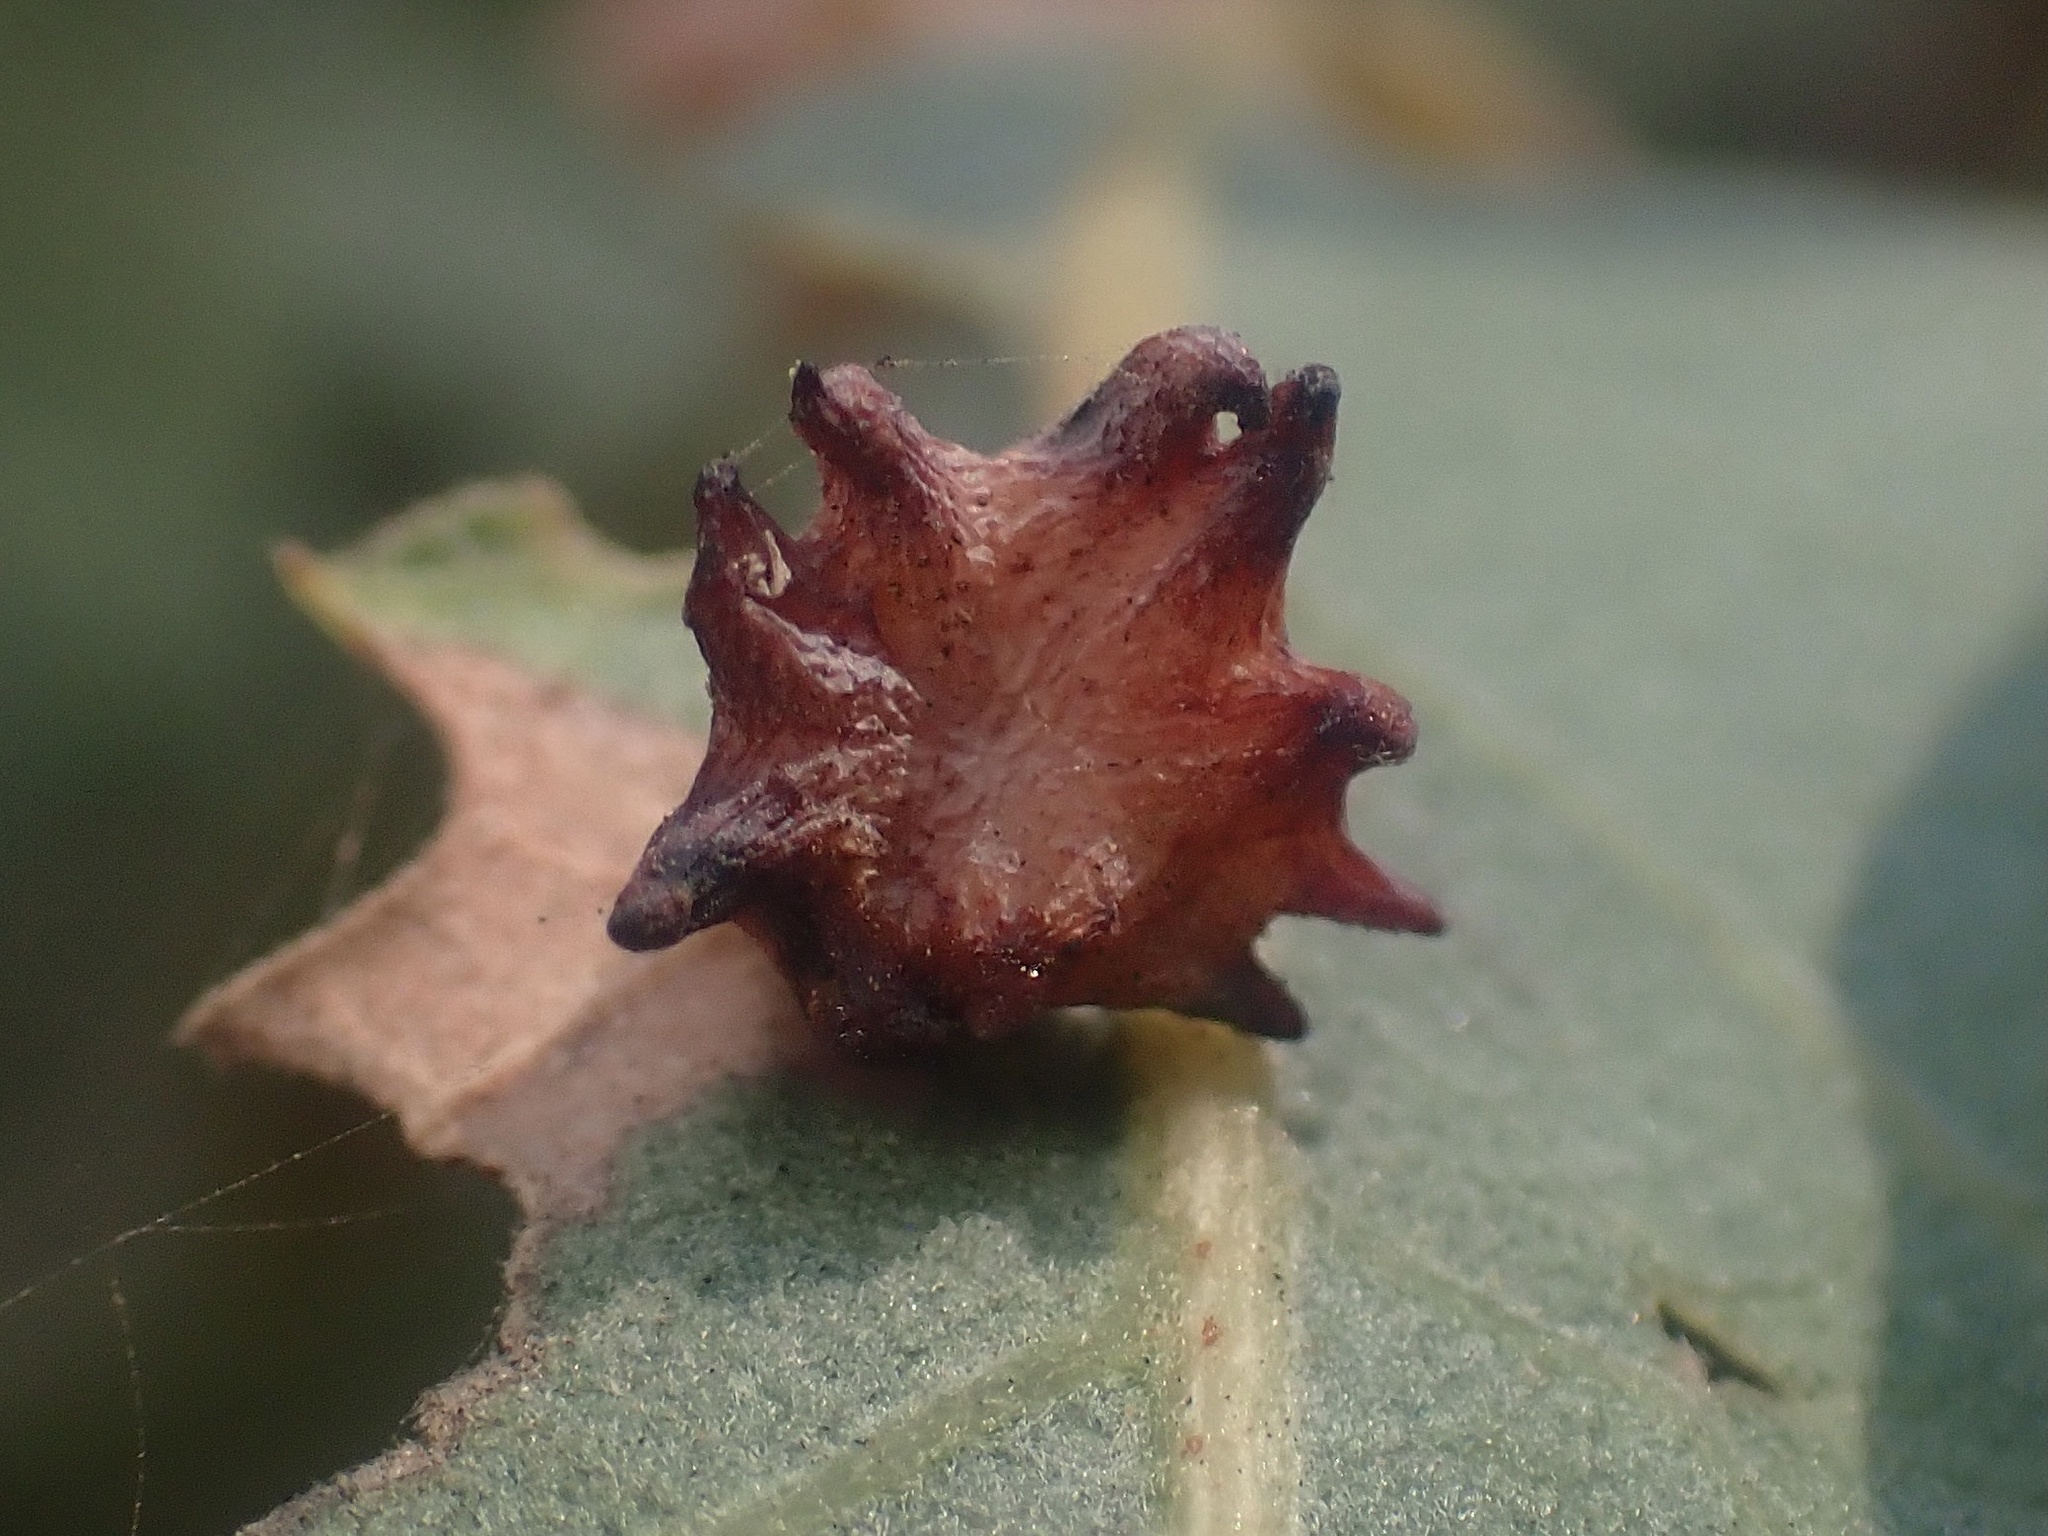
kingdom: Animalia
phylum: Arthropoda
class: Insecta
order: Hymenoptera
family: Cynipidae
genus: Cynips
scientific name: Cynips douglasi
